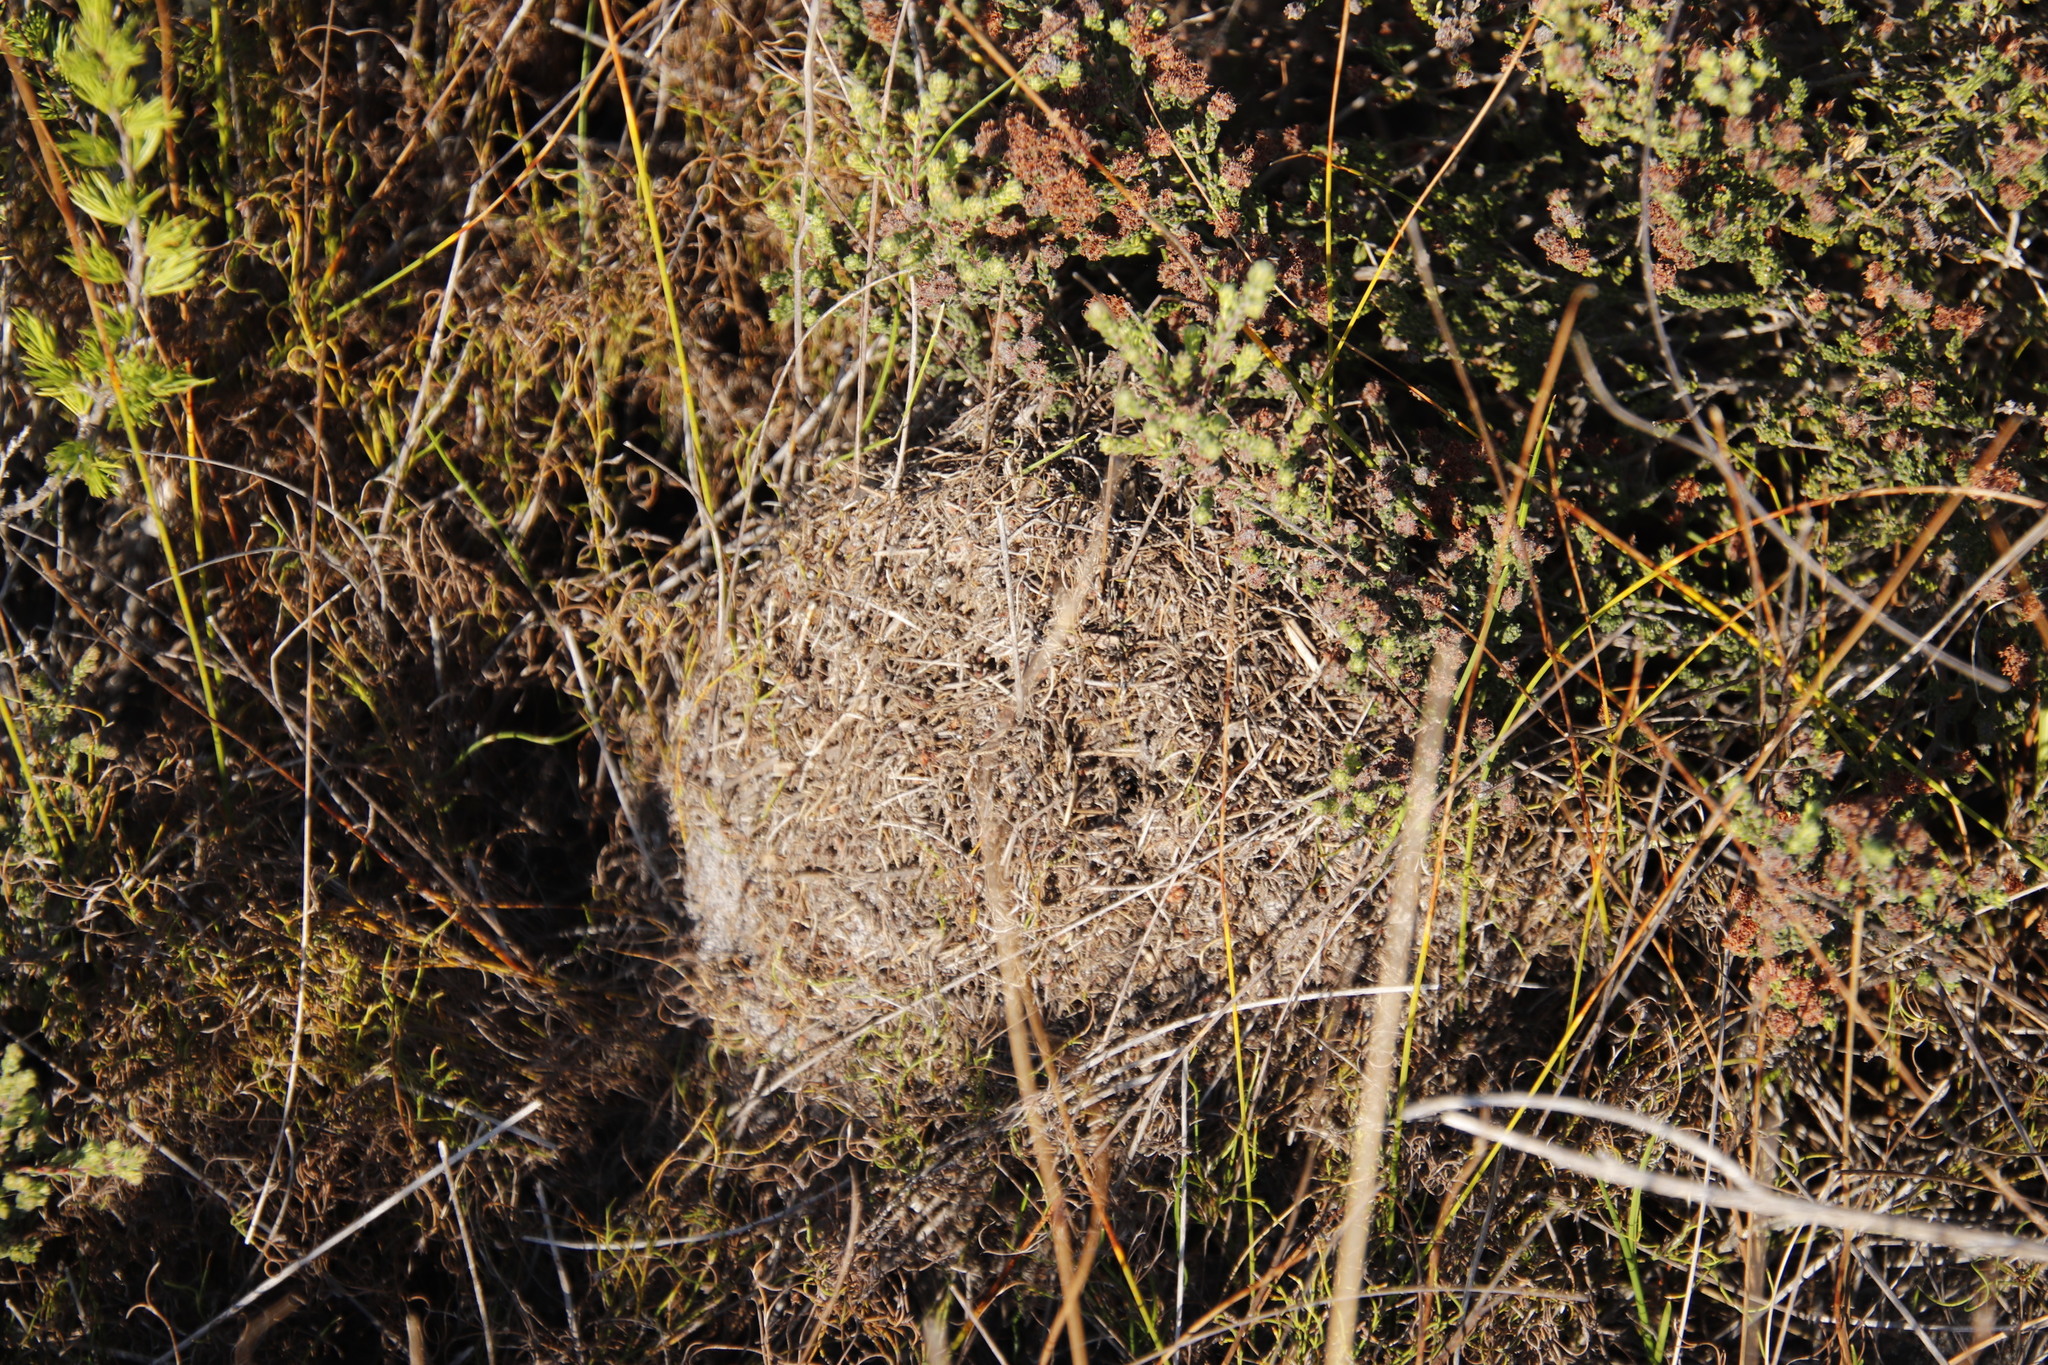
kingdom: Animalia
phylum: Arthropoda
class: Insecta
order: Hymenoptera
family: Formicidae
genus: Myrmicaria
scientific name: Myrmicaria nigra
